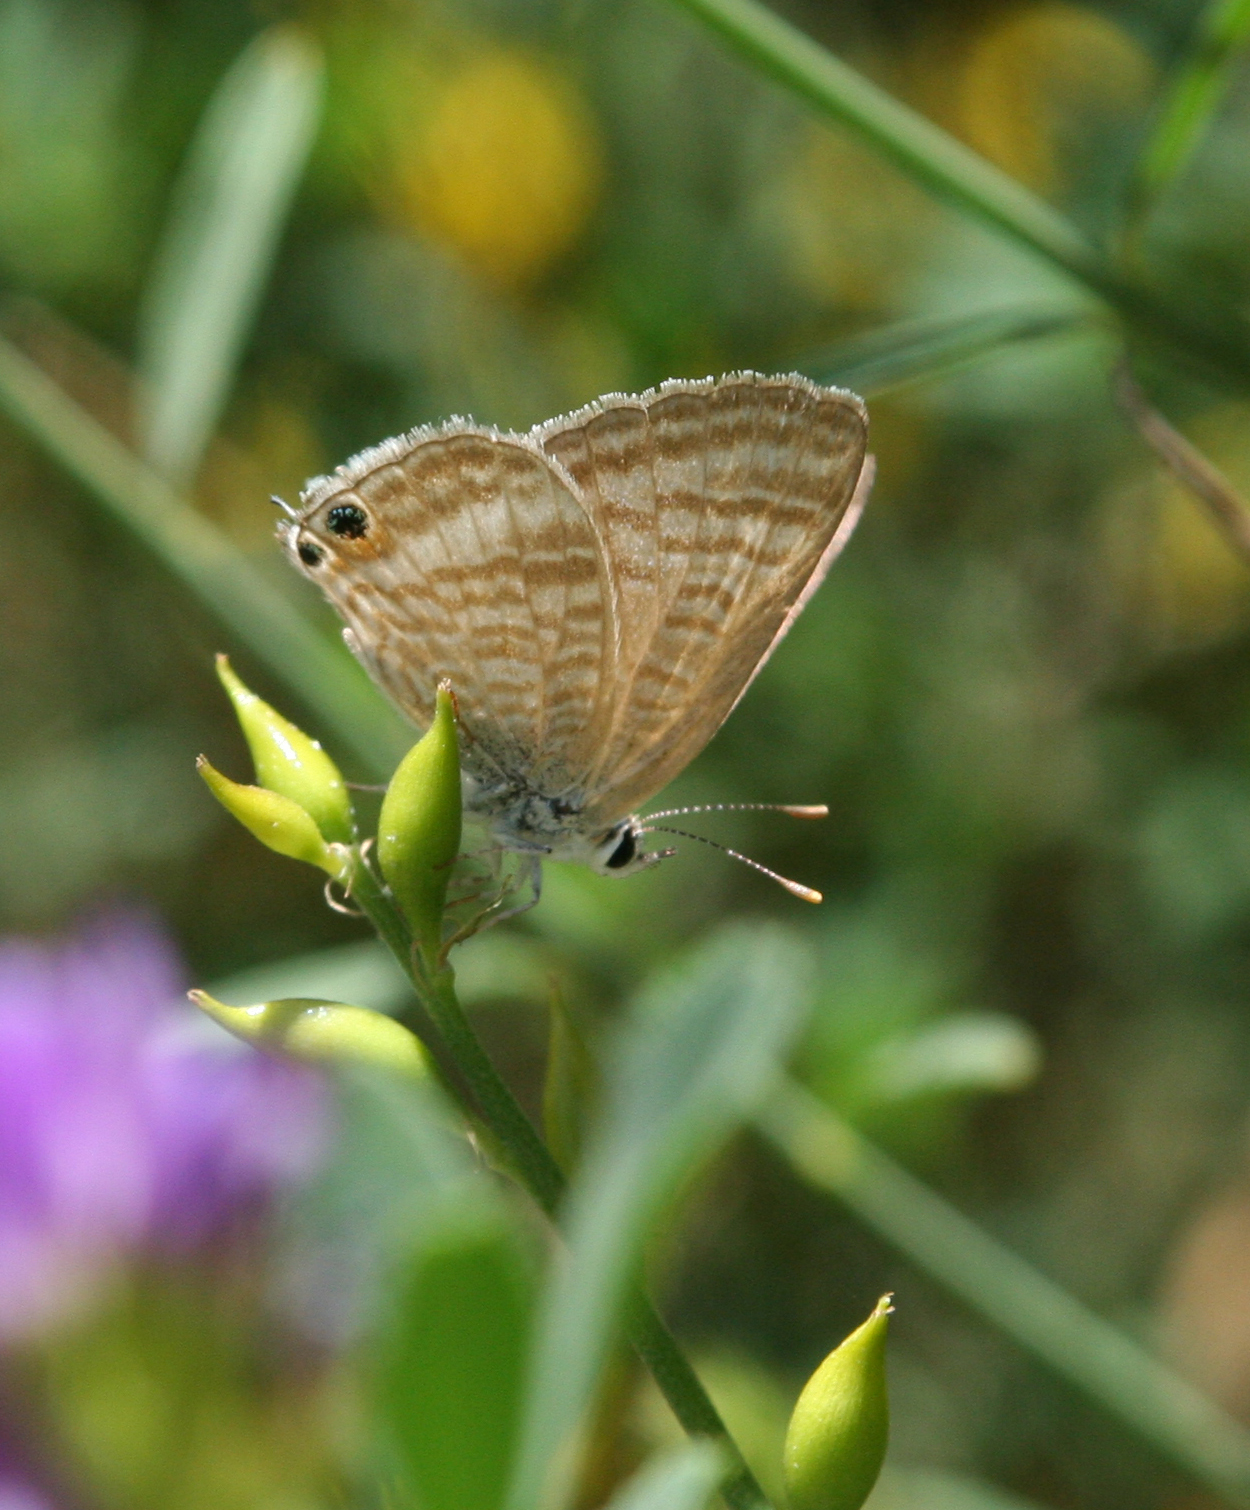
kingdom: Animalia
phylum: Arthropoda
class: Insecta
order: Lepidoptera
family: Lycaenidae
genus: Lampides
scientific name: Lampides boeticus
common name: Long-tailed blue
